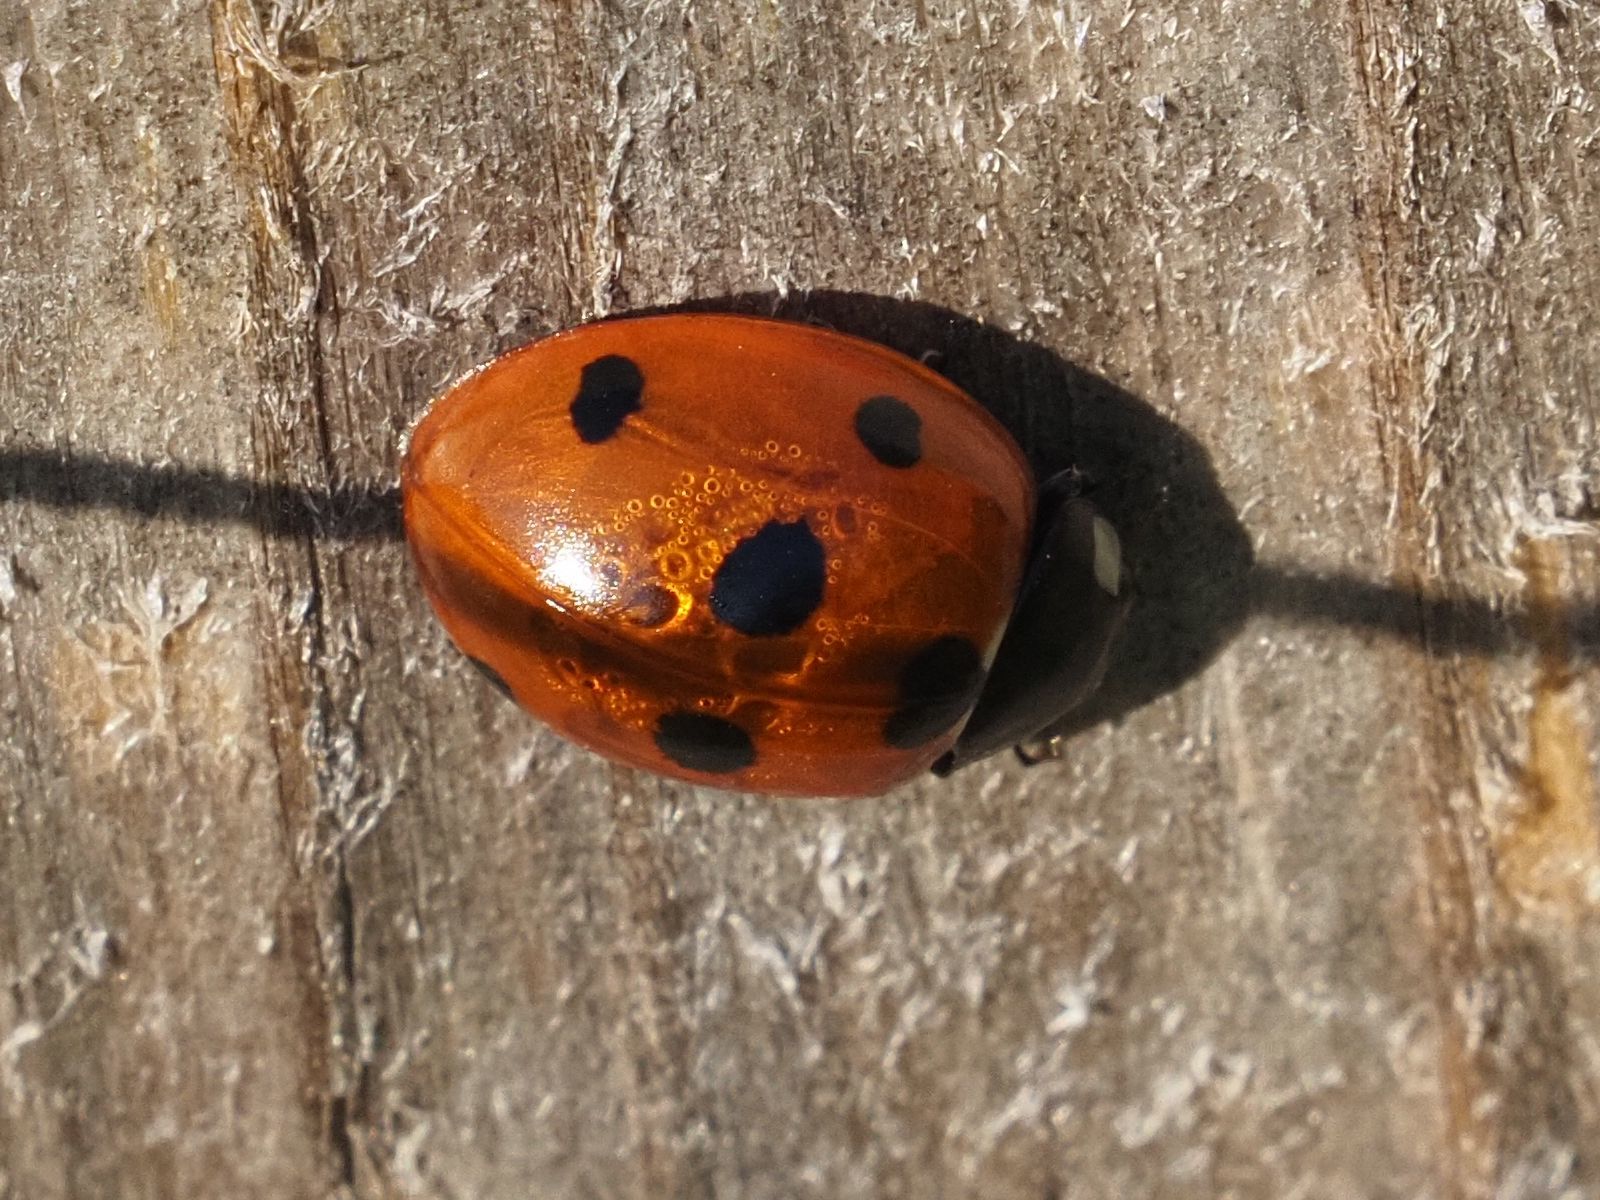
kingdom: Animalia
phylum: Arthropoda
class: Insecta
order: Coleoptera
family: Coccinellidae
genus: Coccinella
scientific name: Coccinella septempunctata
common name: Sevenspotted lady beetle
